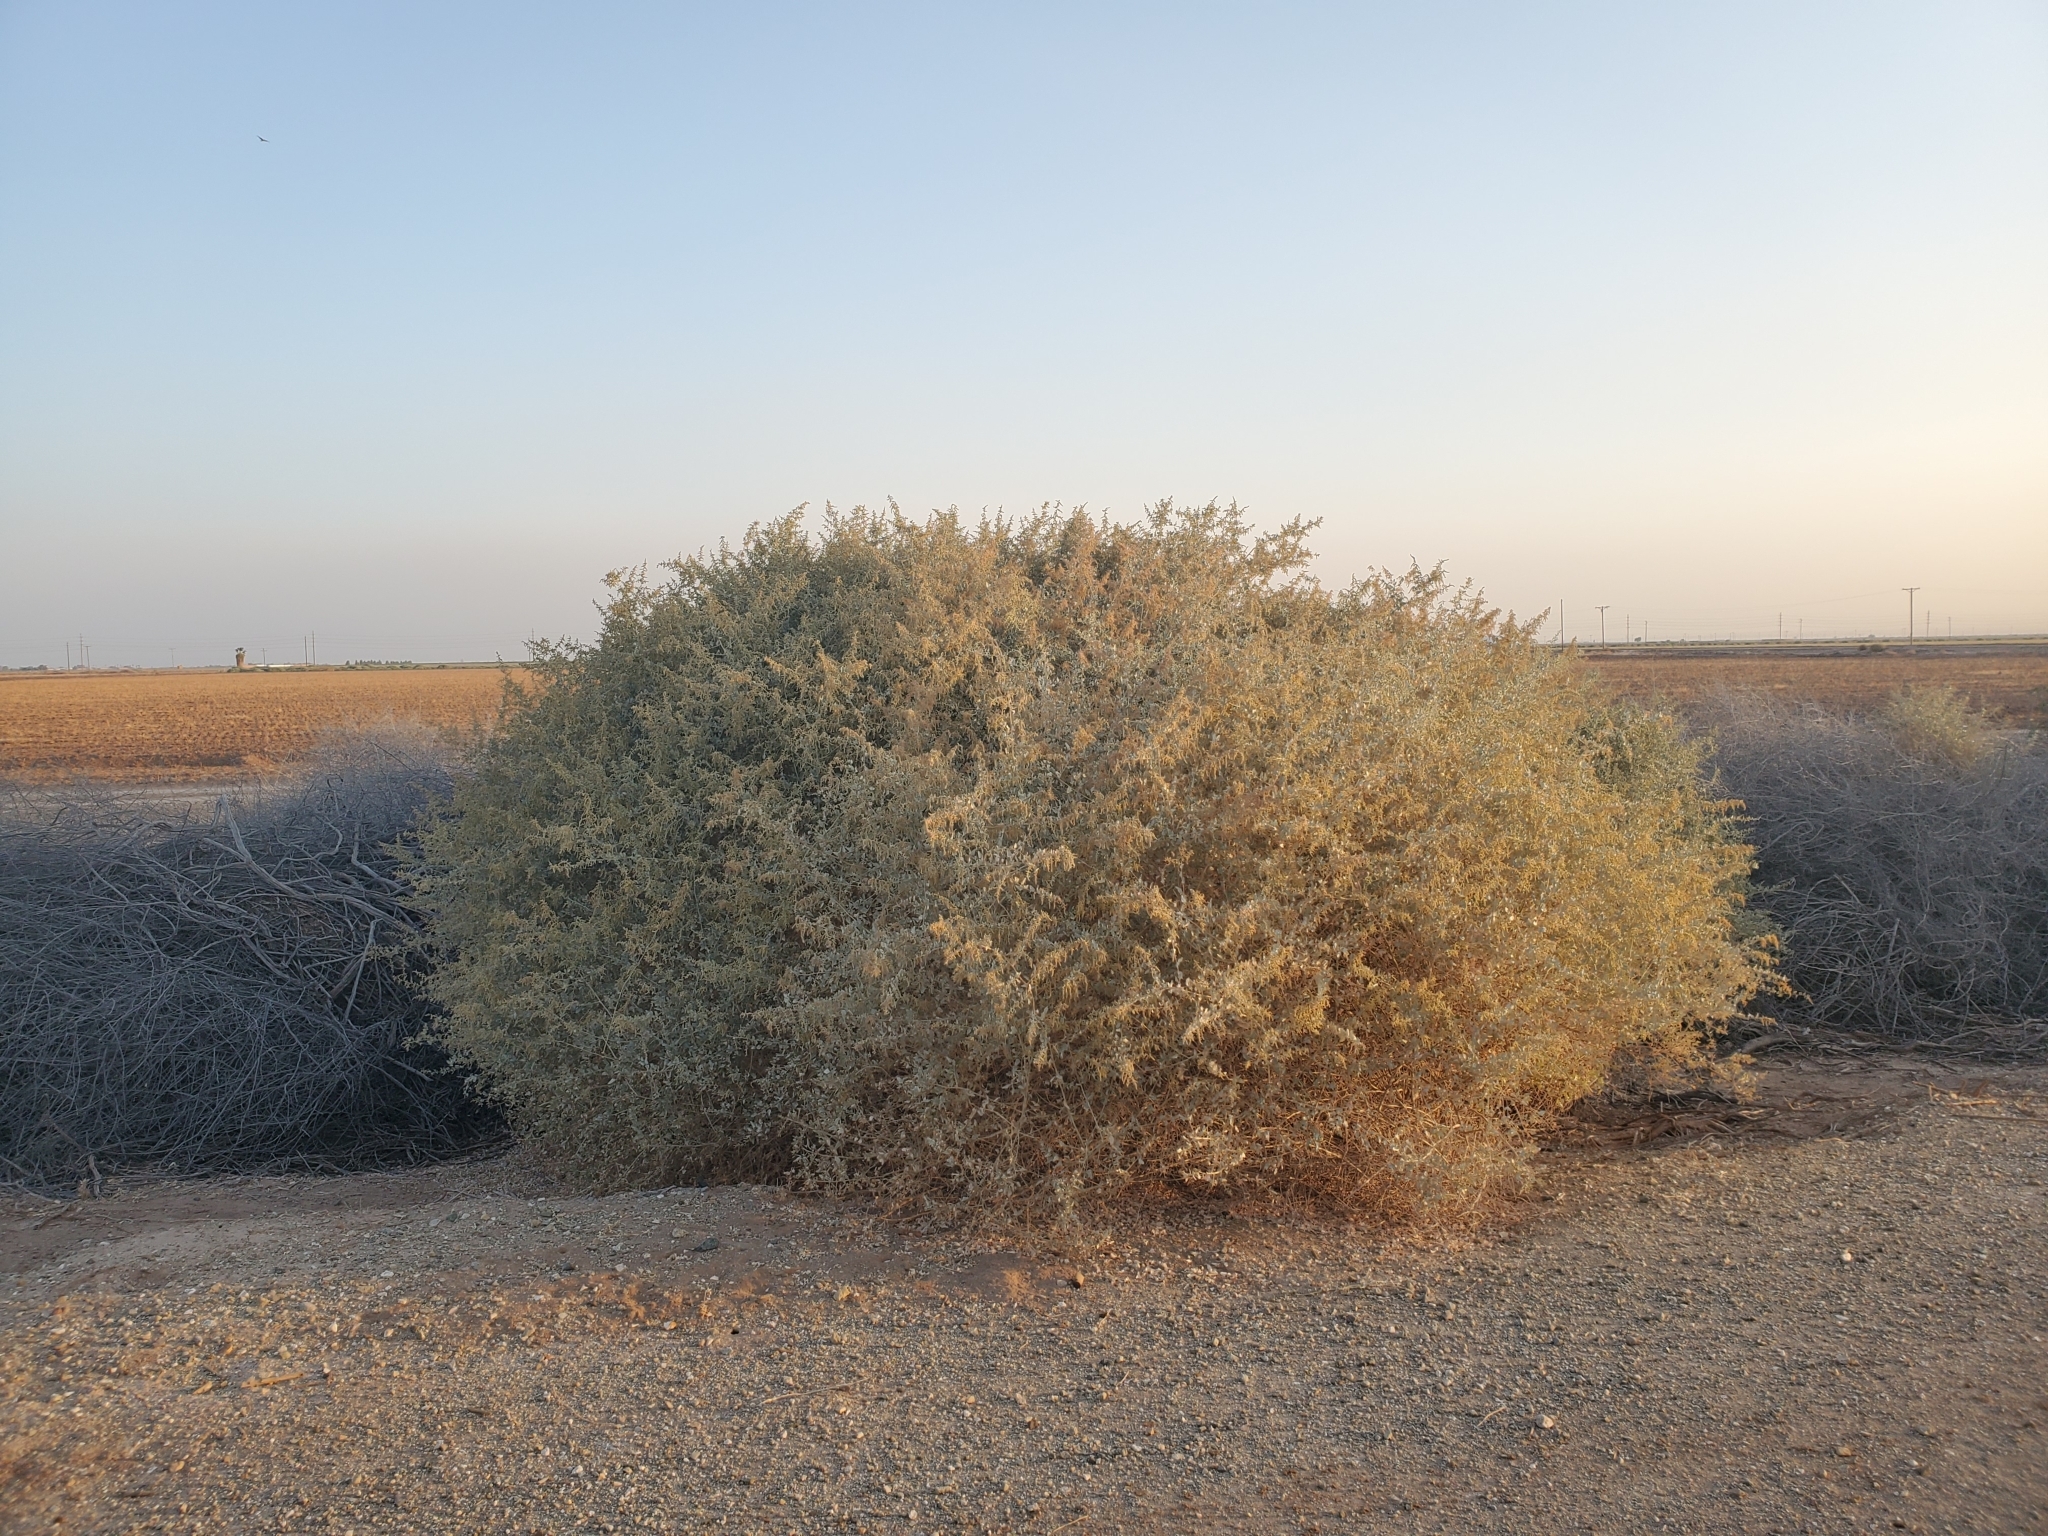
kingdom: Plantae
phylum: Tracheophyta
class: Magnoliopsida
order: Caryophyllales
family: Amaranthaceae
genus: Atriplex
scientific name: Atriplex lentiformis
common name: Big saltbush
